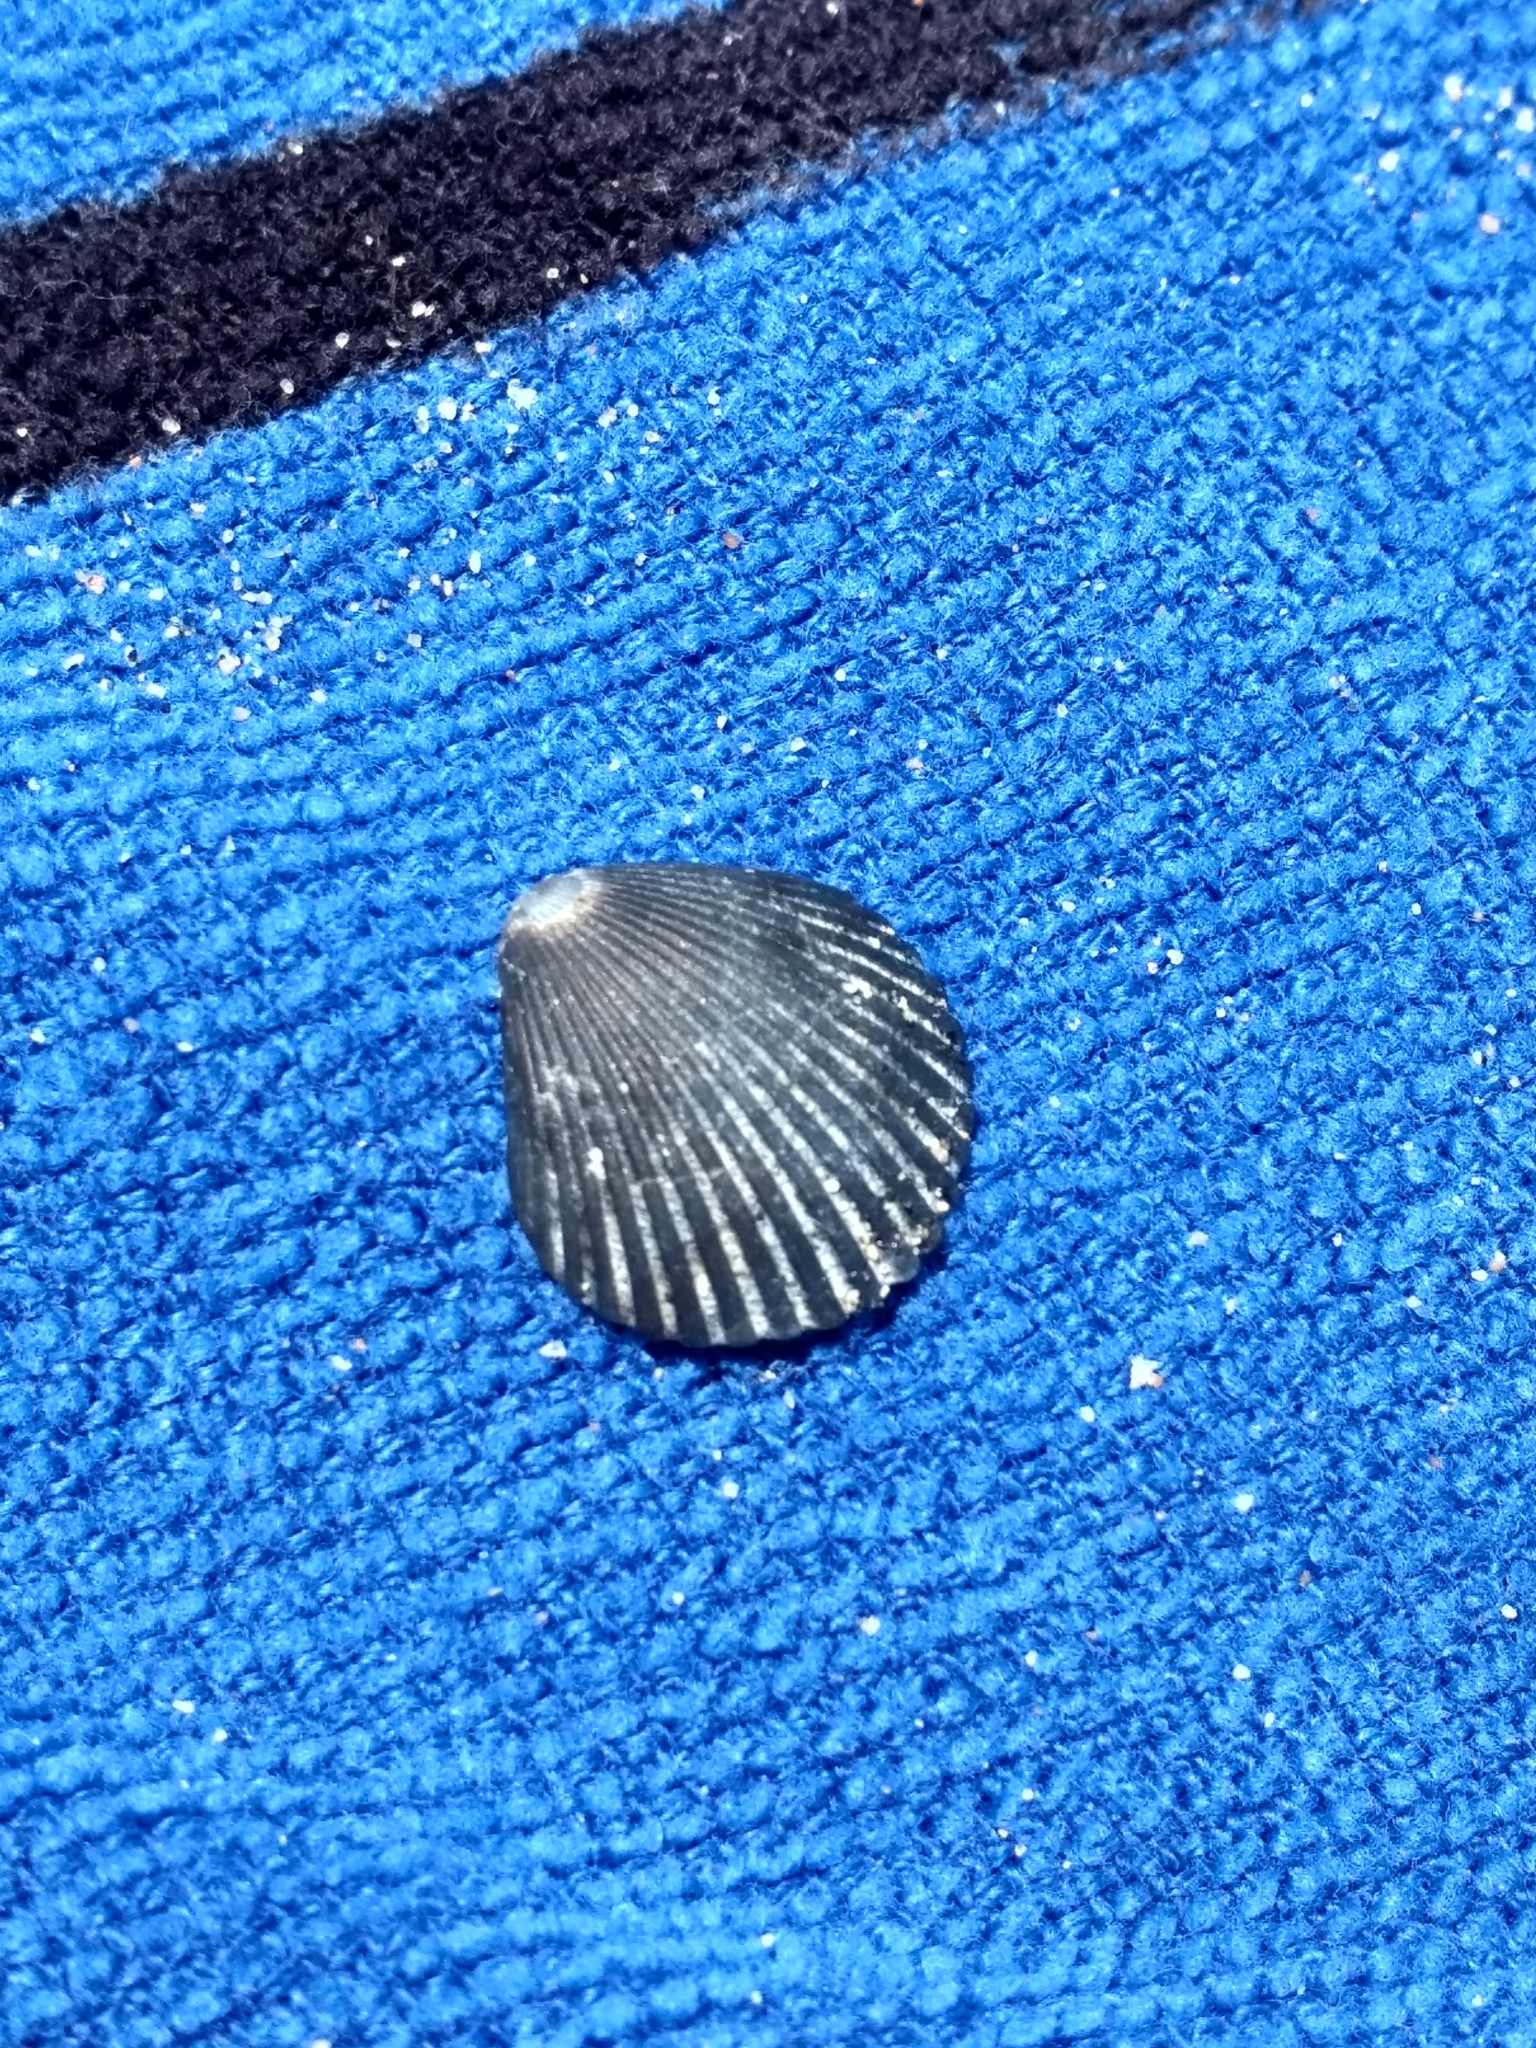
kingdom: Animalia
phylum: Mollusca
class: Bivalvia
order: Pectinida
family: Pectinidae
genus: Argopecten
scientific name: Argopecten ventricosus
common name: Catarina scallop
